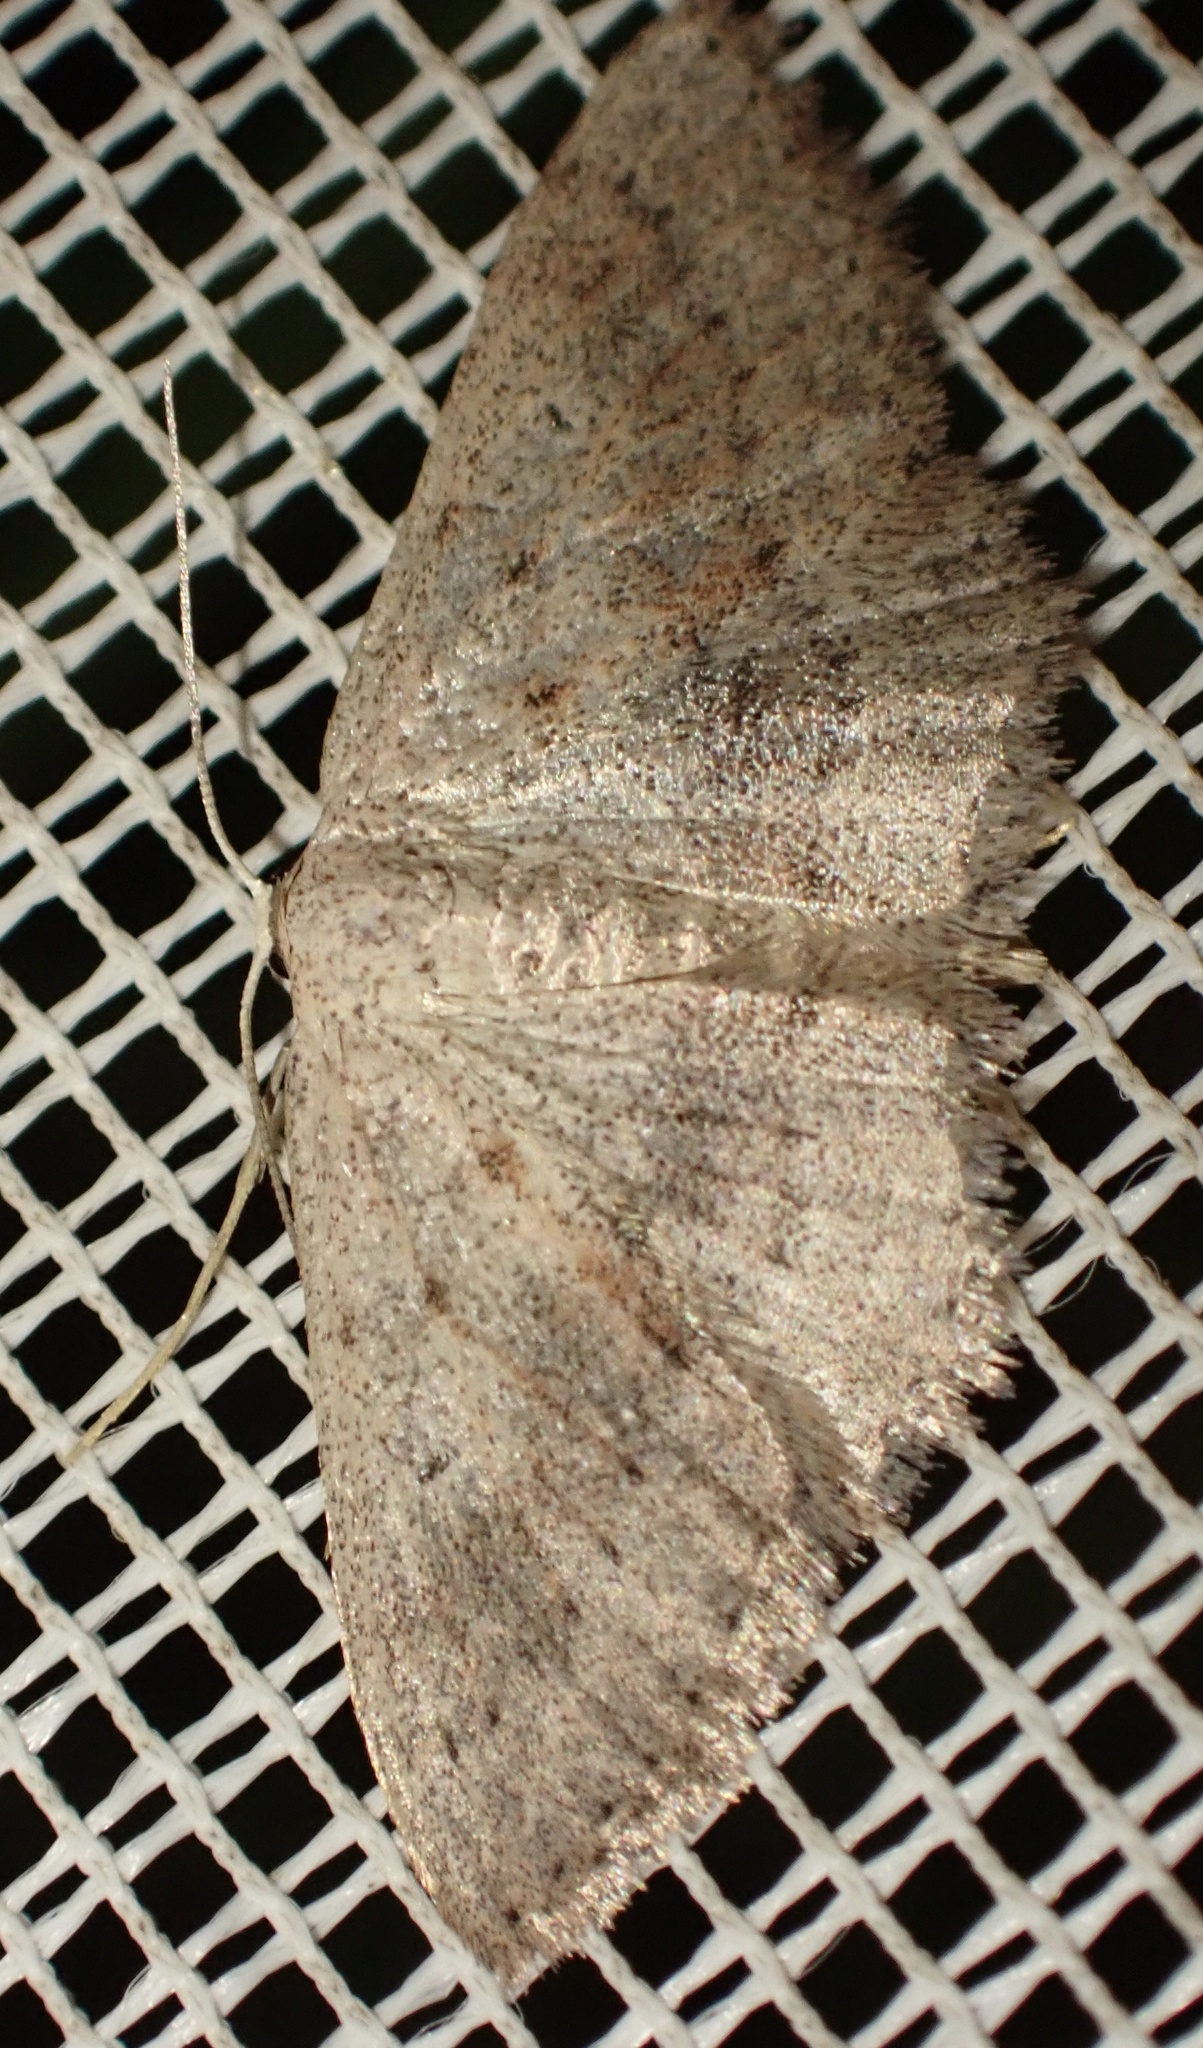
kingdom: Animalia
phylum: Arthropoda
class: Insecta
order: Lepidoptera
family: Geometridae
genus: Scopula
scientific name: Scopula guancharia
